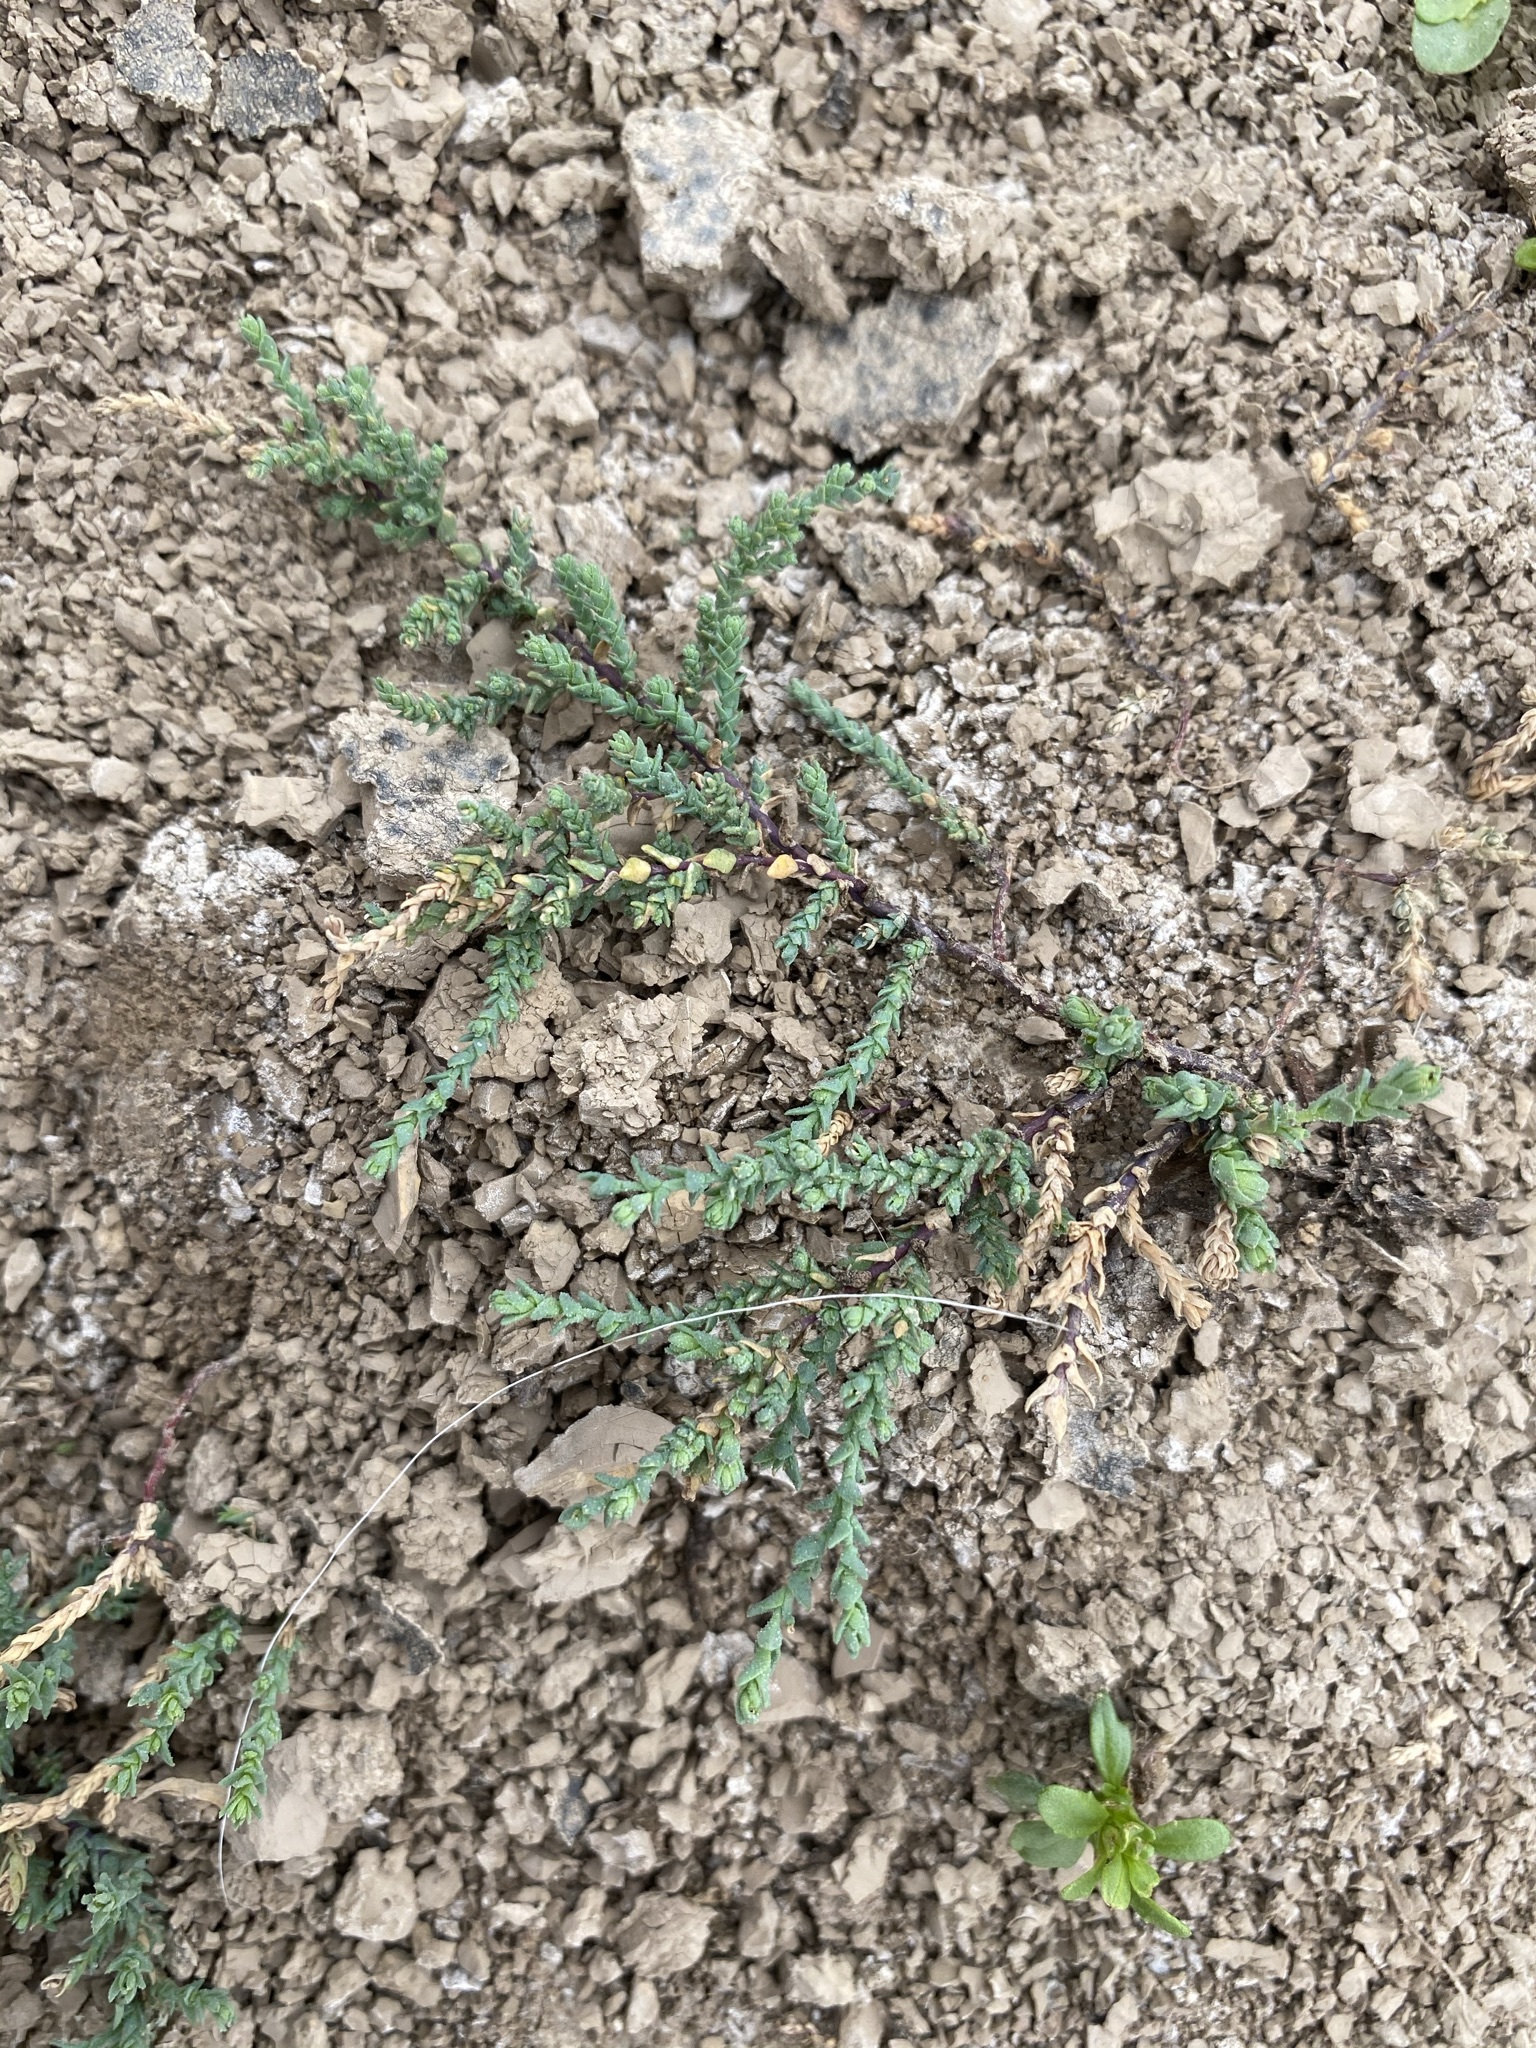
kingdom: Plantae
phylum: Tracheophyta
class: Magnoliopsida
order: Caryophyllales
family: Tamaricaceae
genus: Tamarix
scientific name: Tamarix
